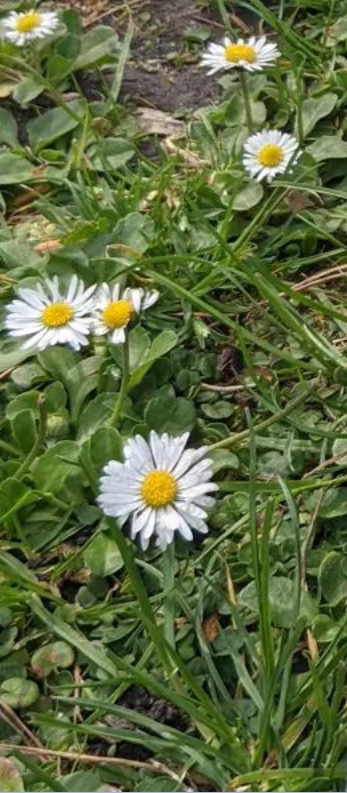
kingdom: Plantae
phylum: Tracheophyta
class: Magnoliopsida
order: Asterales
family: Asteraceae
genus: Bellis
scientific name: Bellis perennis
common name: Lawndaisy
